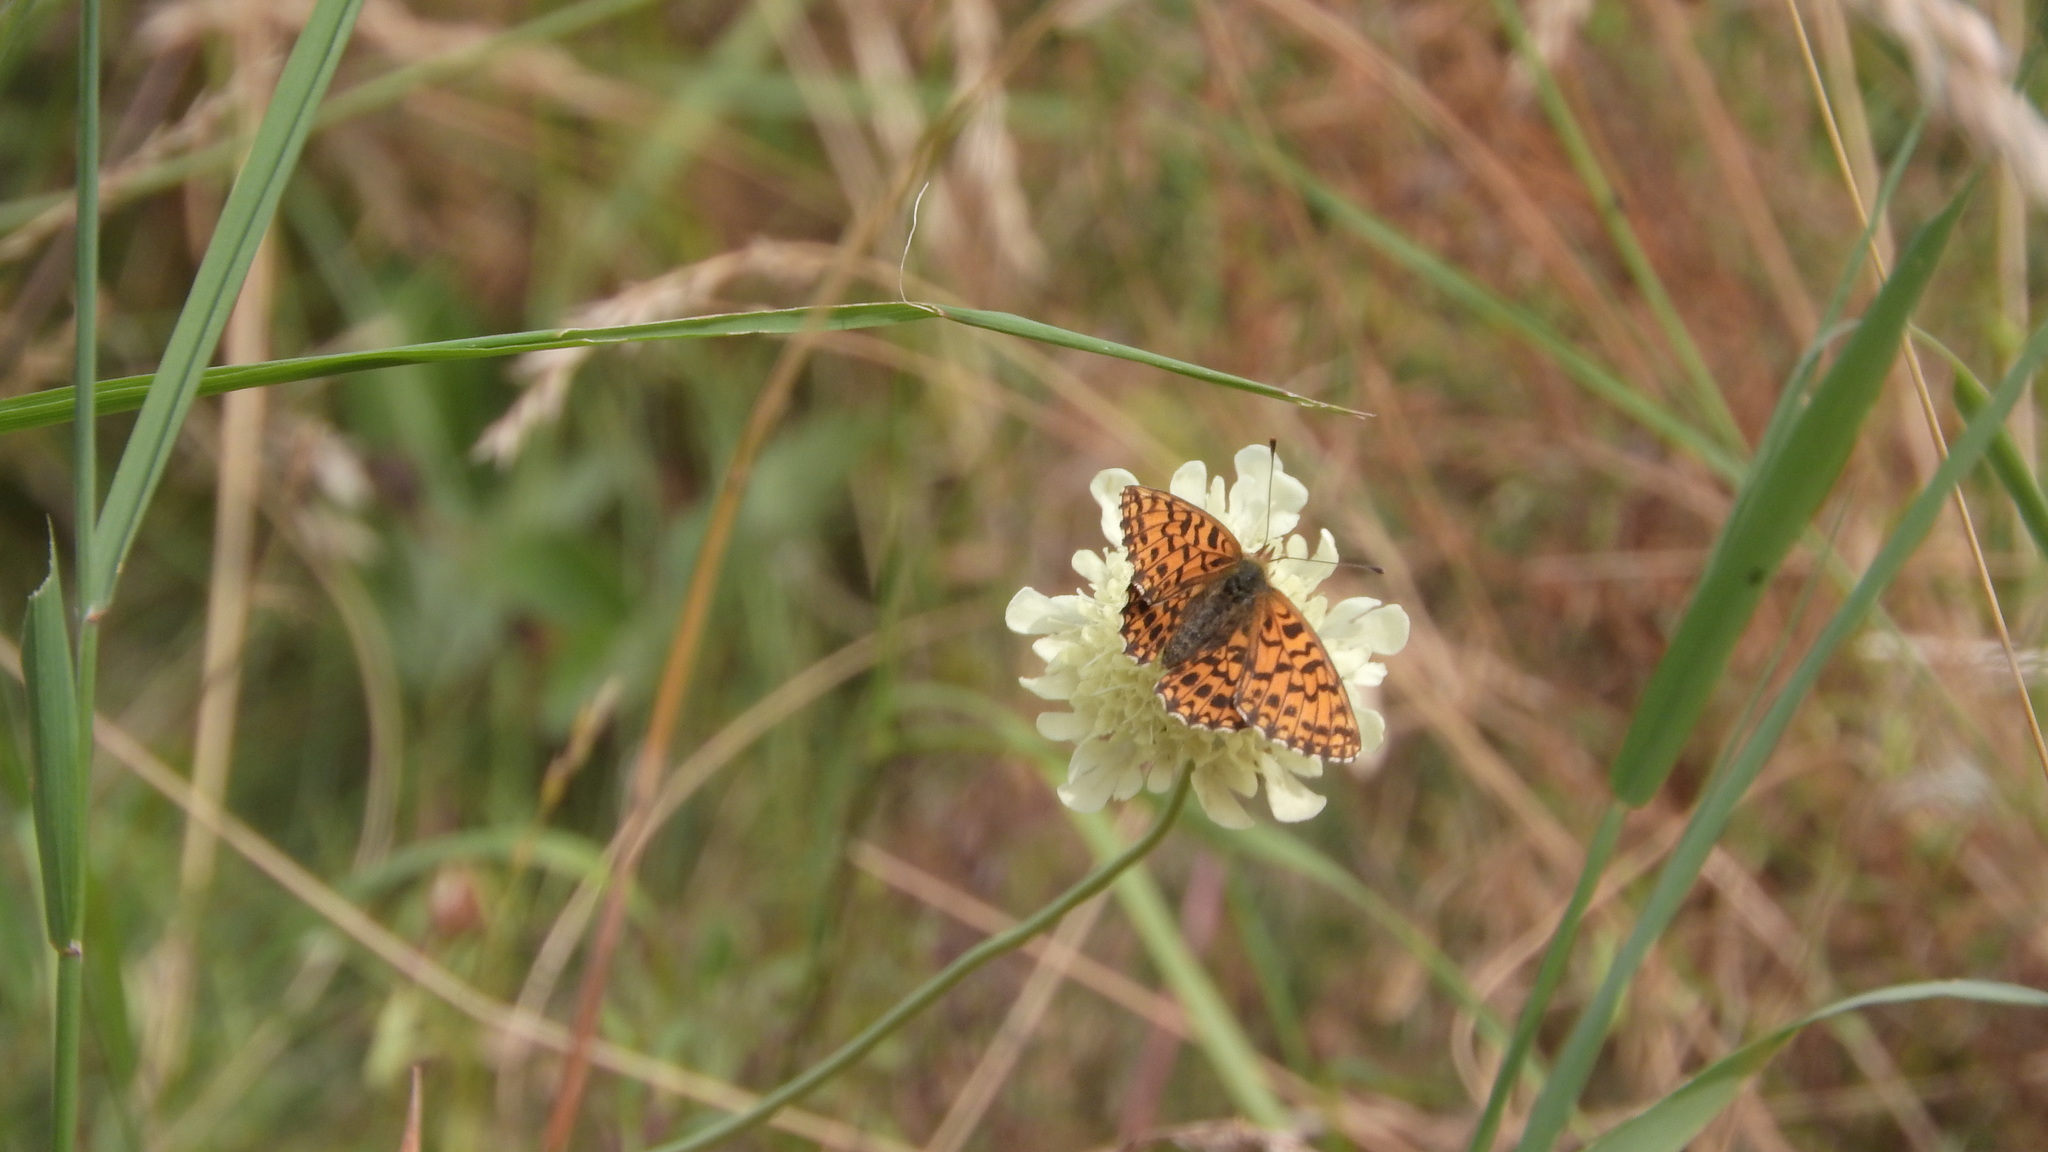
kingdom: Animalia
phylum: Arthropoda
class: Insecta
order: Lepidoptera
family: Nymphalidae
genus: Boloria
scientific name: Boloria dia
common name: Weaver's fritillary
